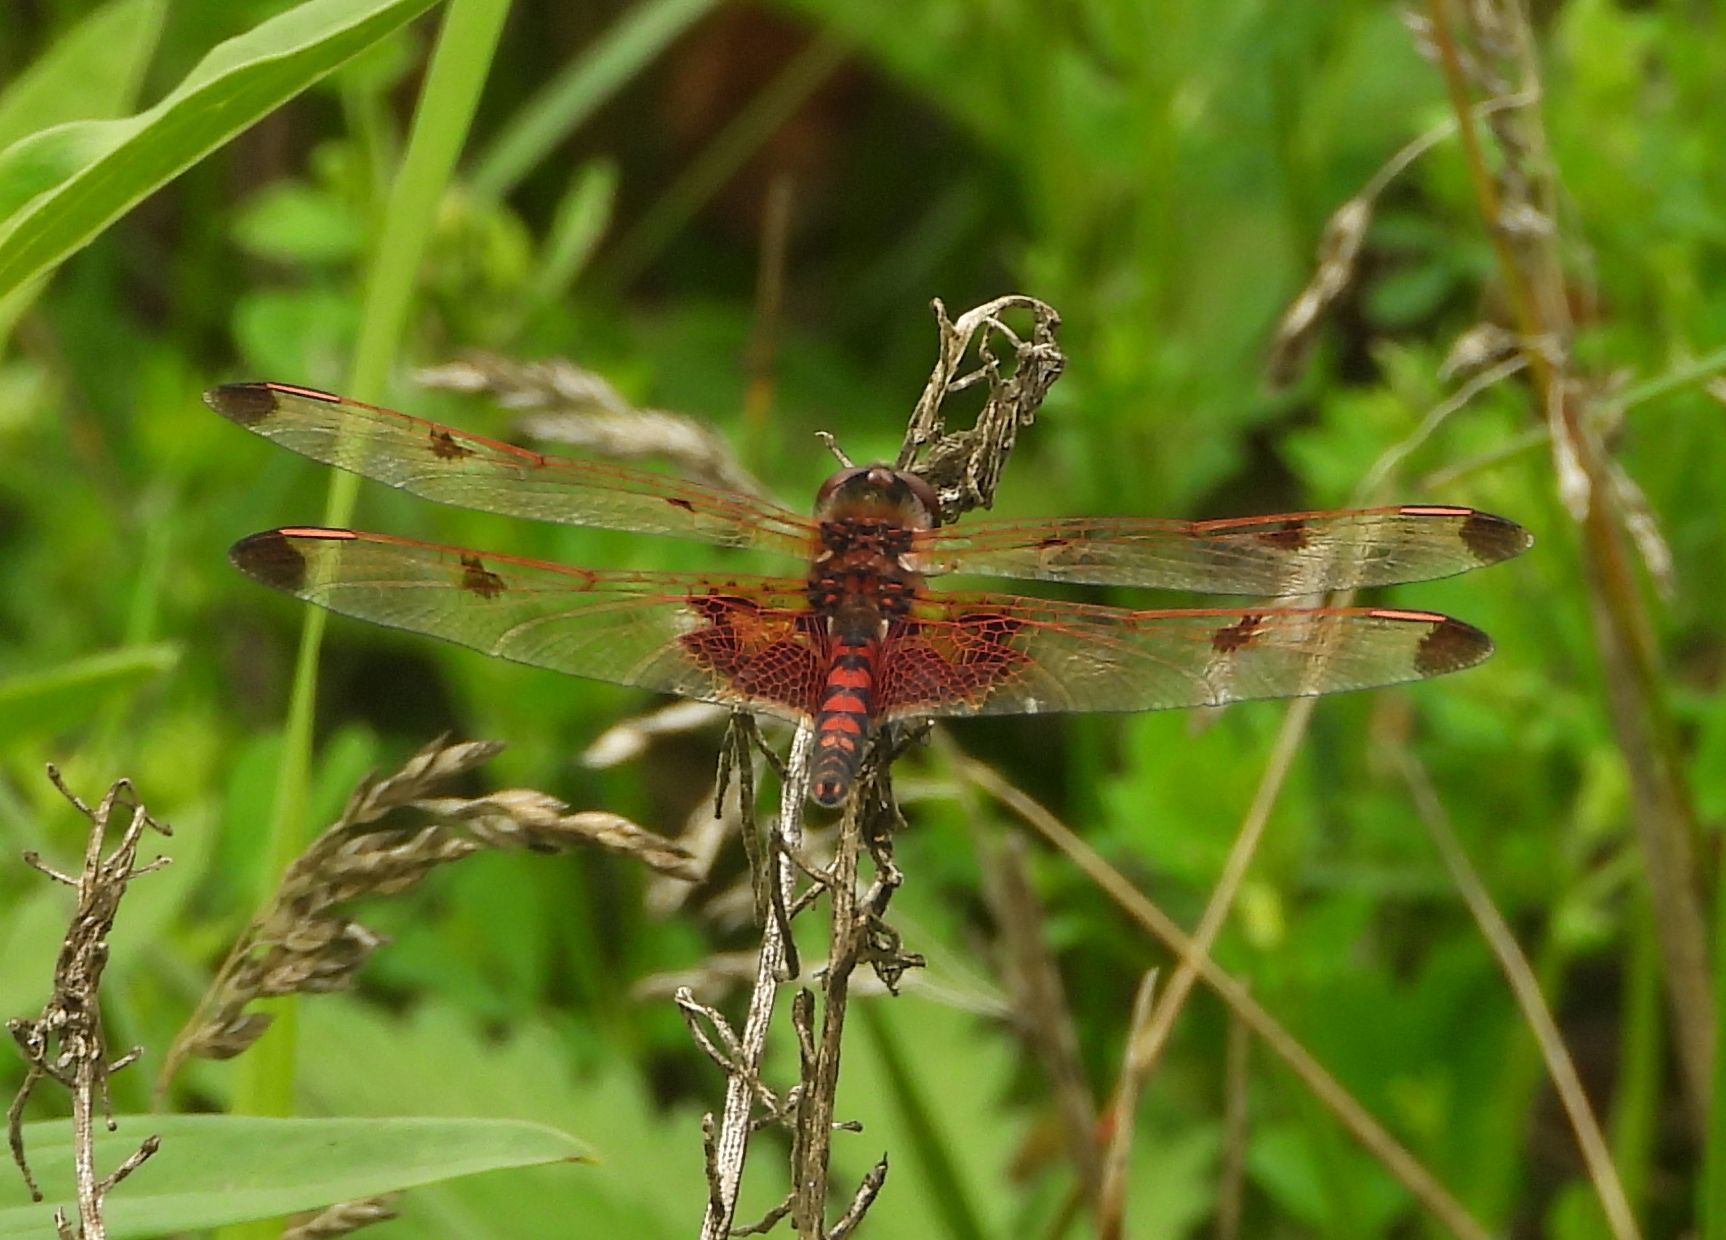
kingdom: Animalia
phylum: Arthropoda
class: Insecta
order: Odonata
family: Libellulidae
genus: Celithemis
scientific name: Celithemis elisa
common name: Calico pennant
